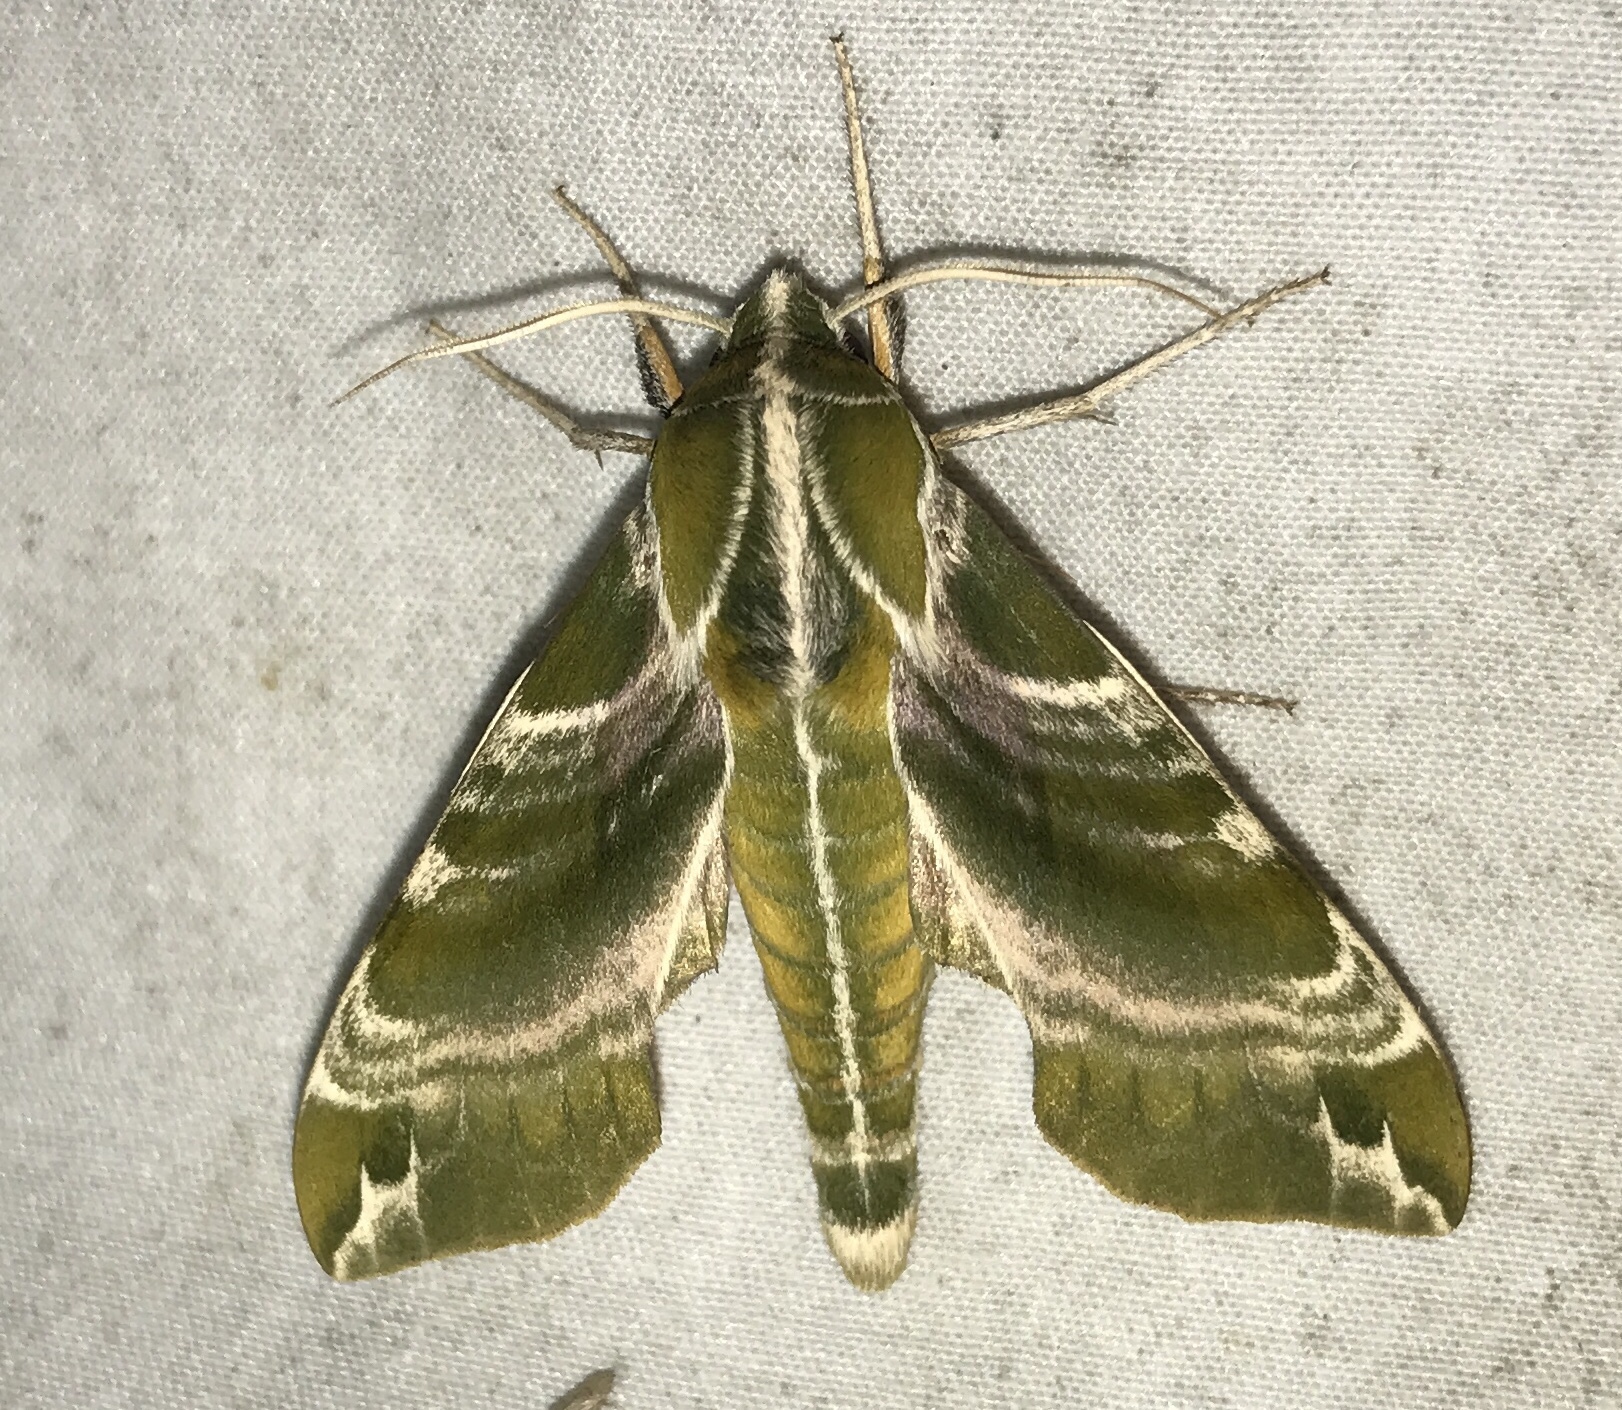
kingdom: Animalia
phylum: Arthropoda
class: Insecta
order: Lepidoptera
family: Sphingidae
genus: Darapsa
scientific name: Darapsa versicolor
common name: Hydrangea sphinx
